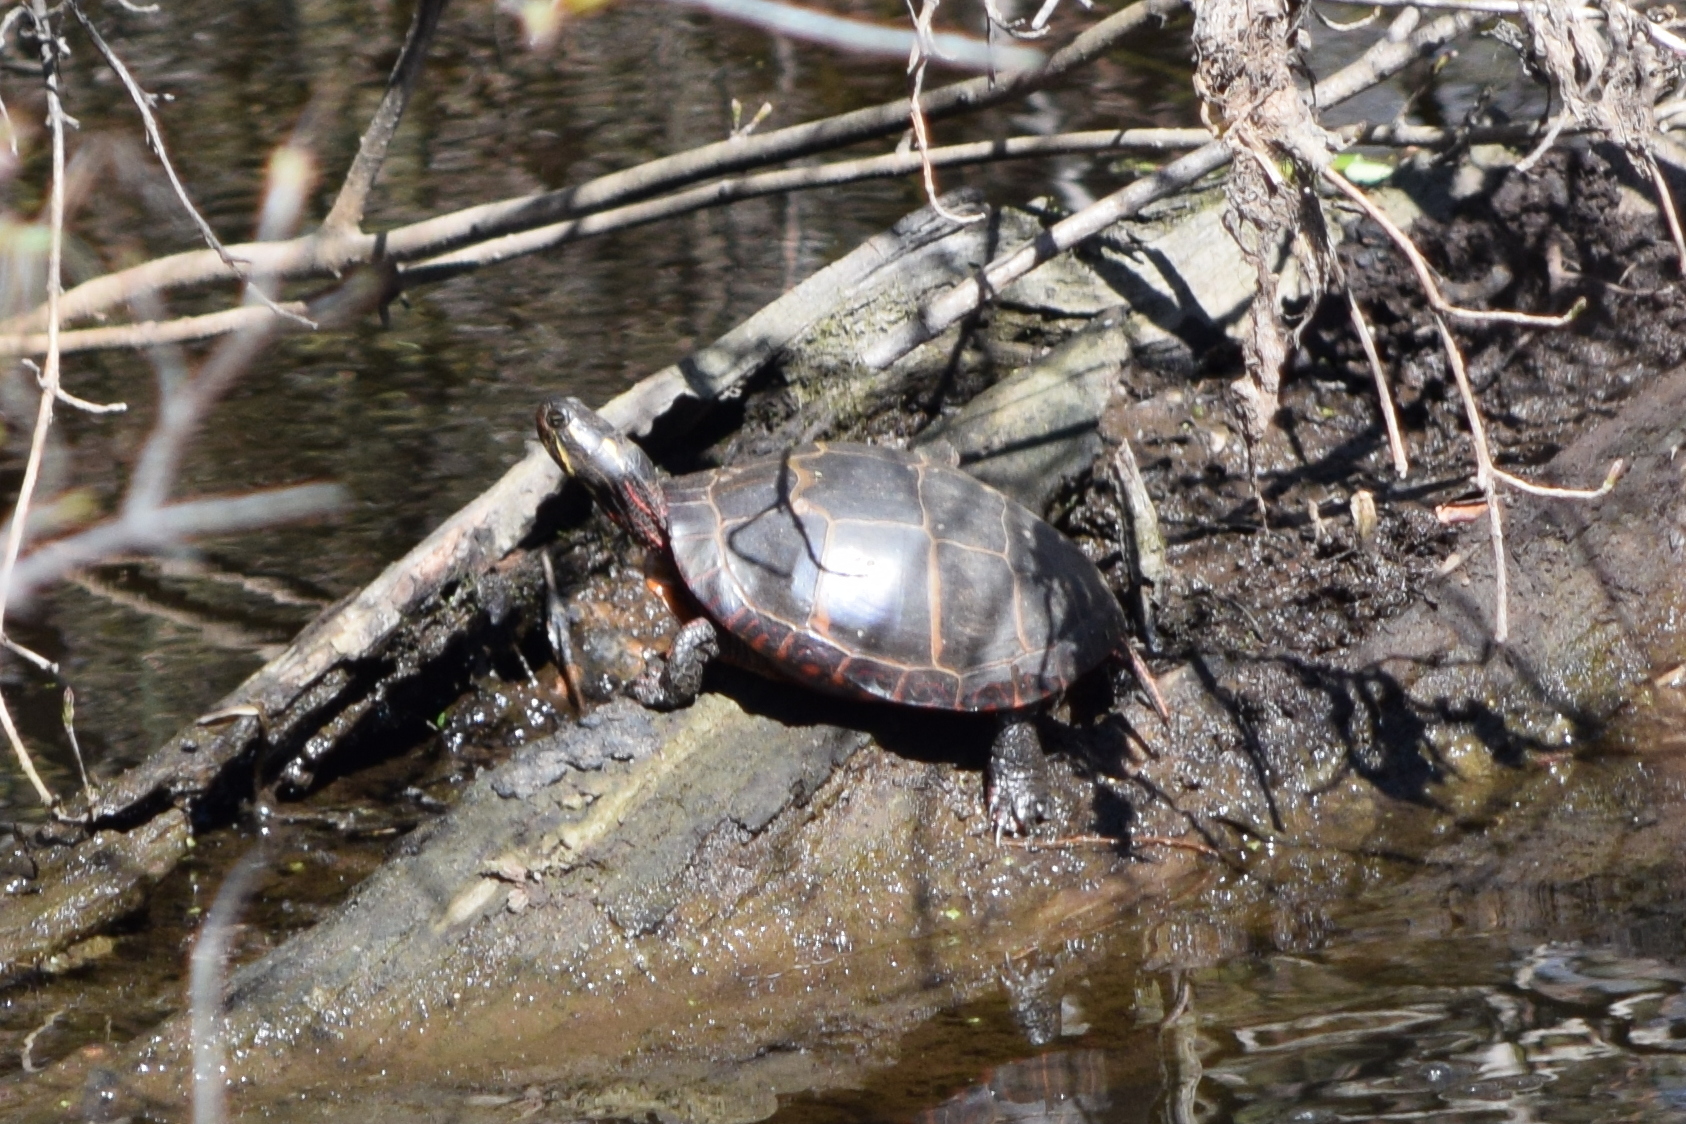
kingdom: Animalia
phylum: Chordata
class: Testudines
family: Emydidae
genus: Chrysemys
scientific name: Chrysemys picta
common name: Painted turtle
